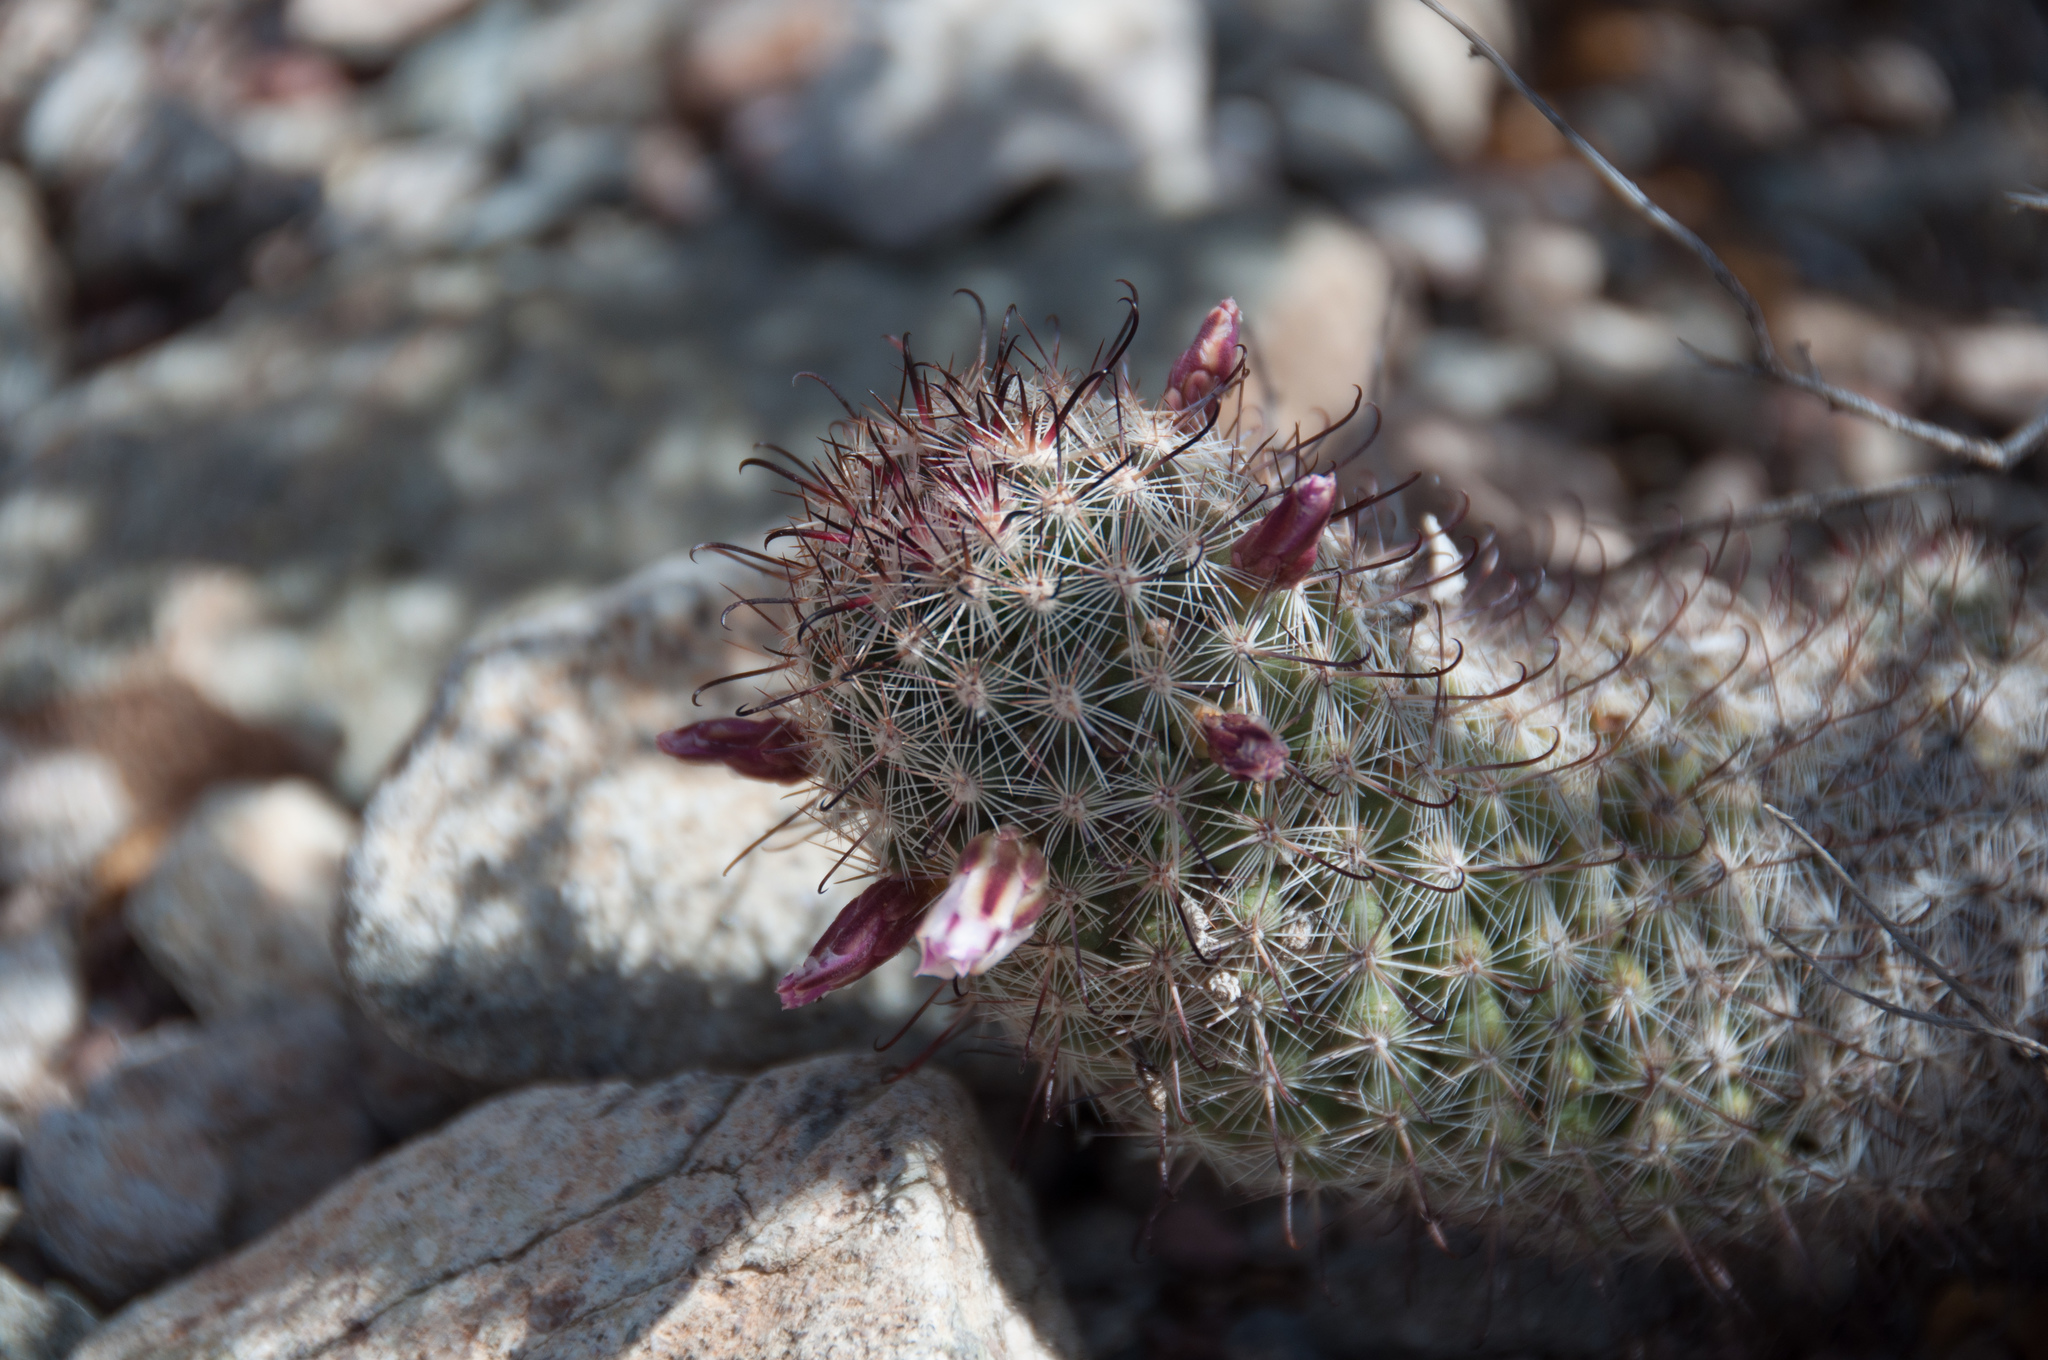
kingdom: Plantae
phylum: Tracheophyta
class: Magnoliopsida
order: Caryophyllales
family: Cactaceae
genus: Cochemiea
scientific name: Cochemiea grahamii
